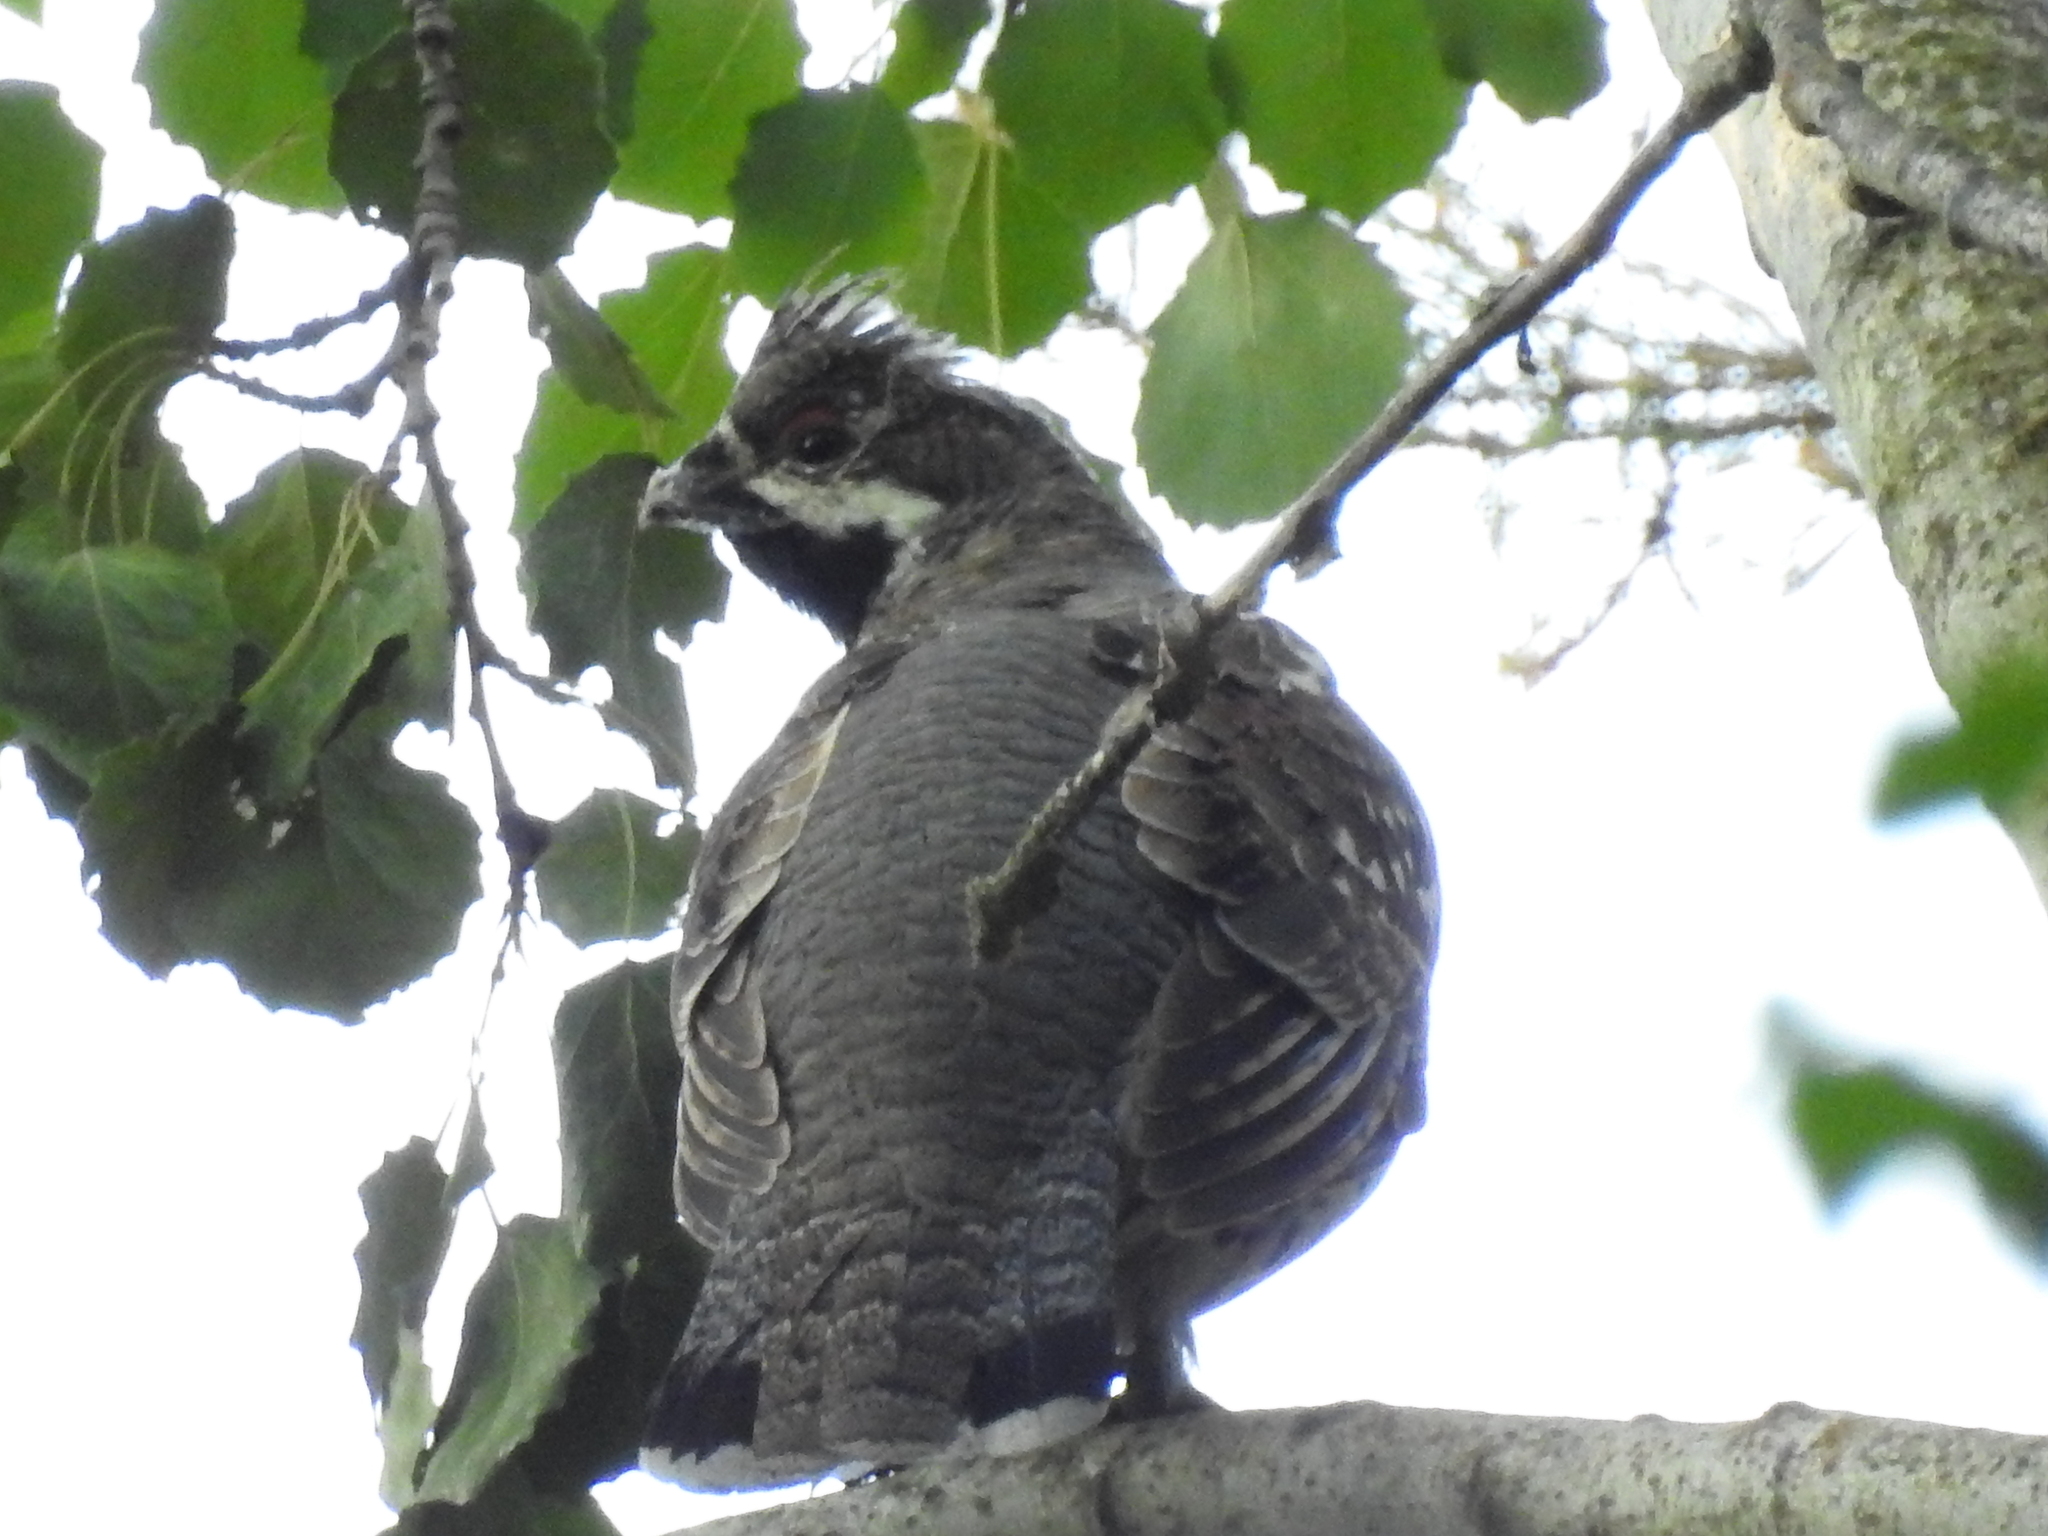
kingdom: Animalia
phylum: Chordata
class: Aves
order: Galliformes
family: Phasianidae
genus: Tetrastes
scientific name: Tetrastes bonasia
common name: Hazel grouse
